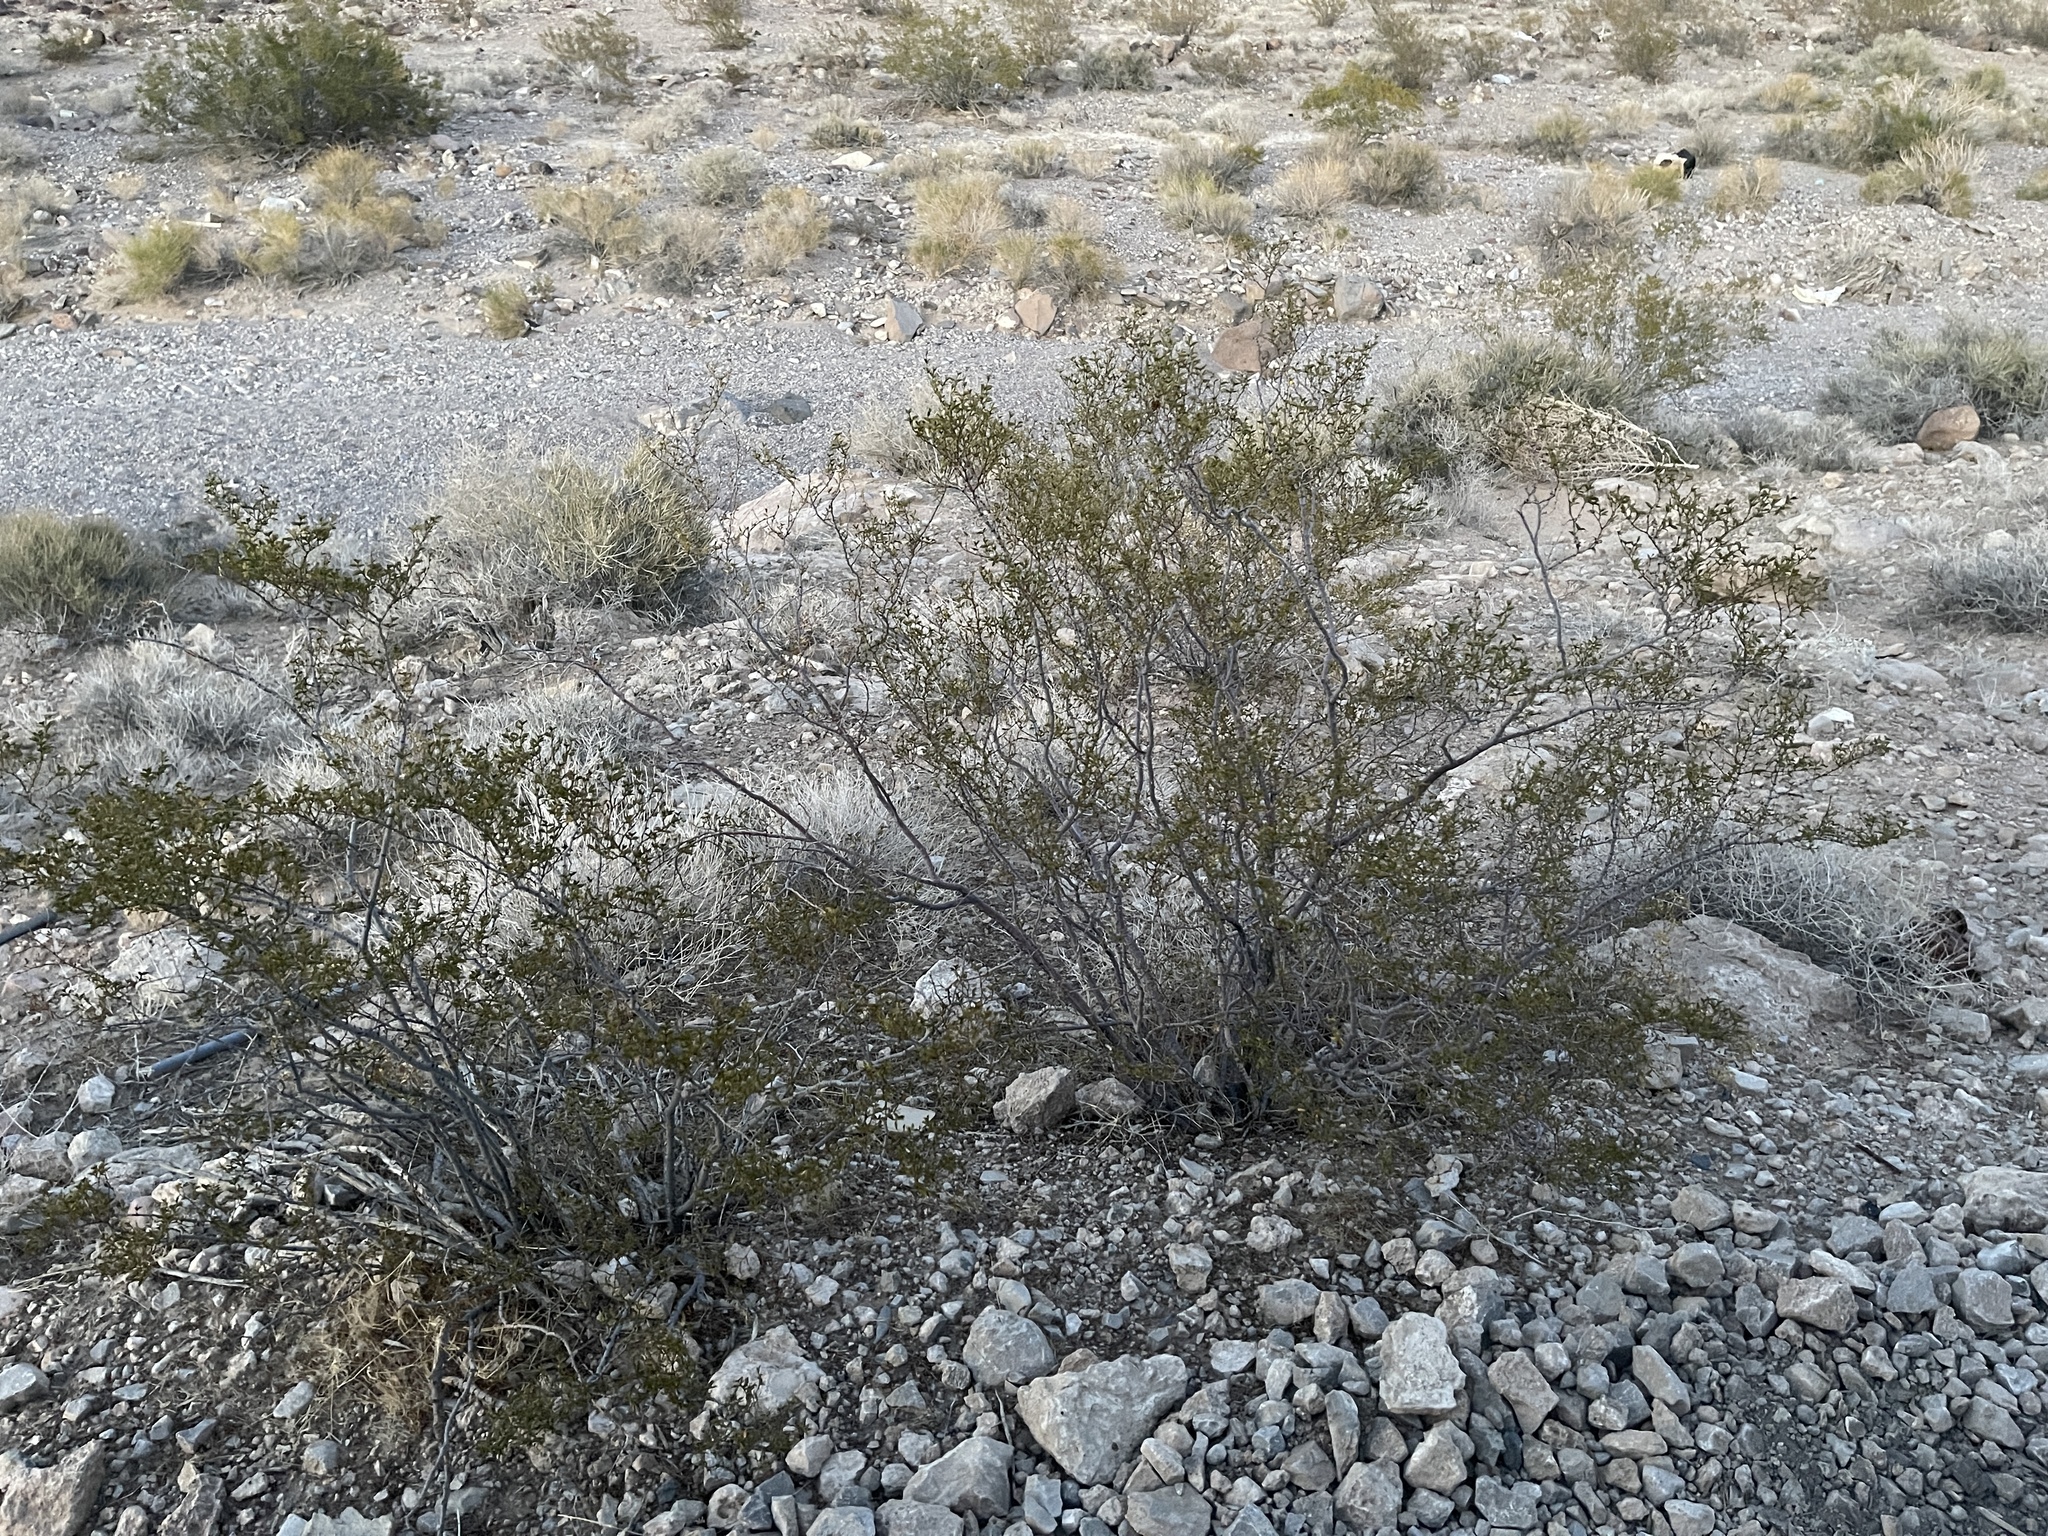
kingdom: Plantae
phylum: Tracheophyta
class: Magnoliopsida
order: Zygophyllales
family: Zygophyllaceae
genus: Larrea
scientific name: Larrea tridentata
